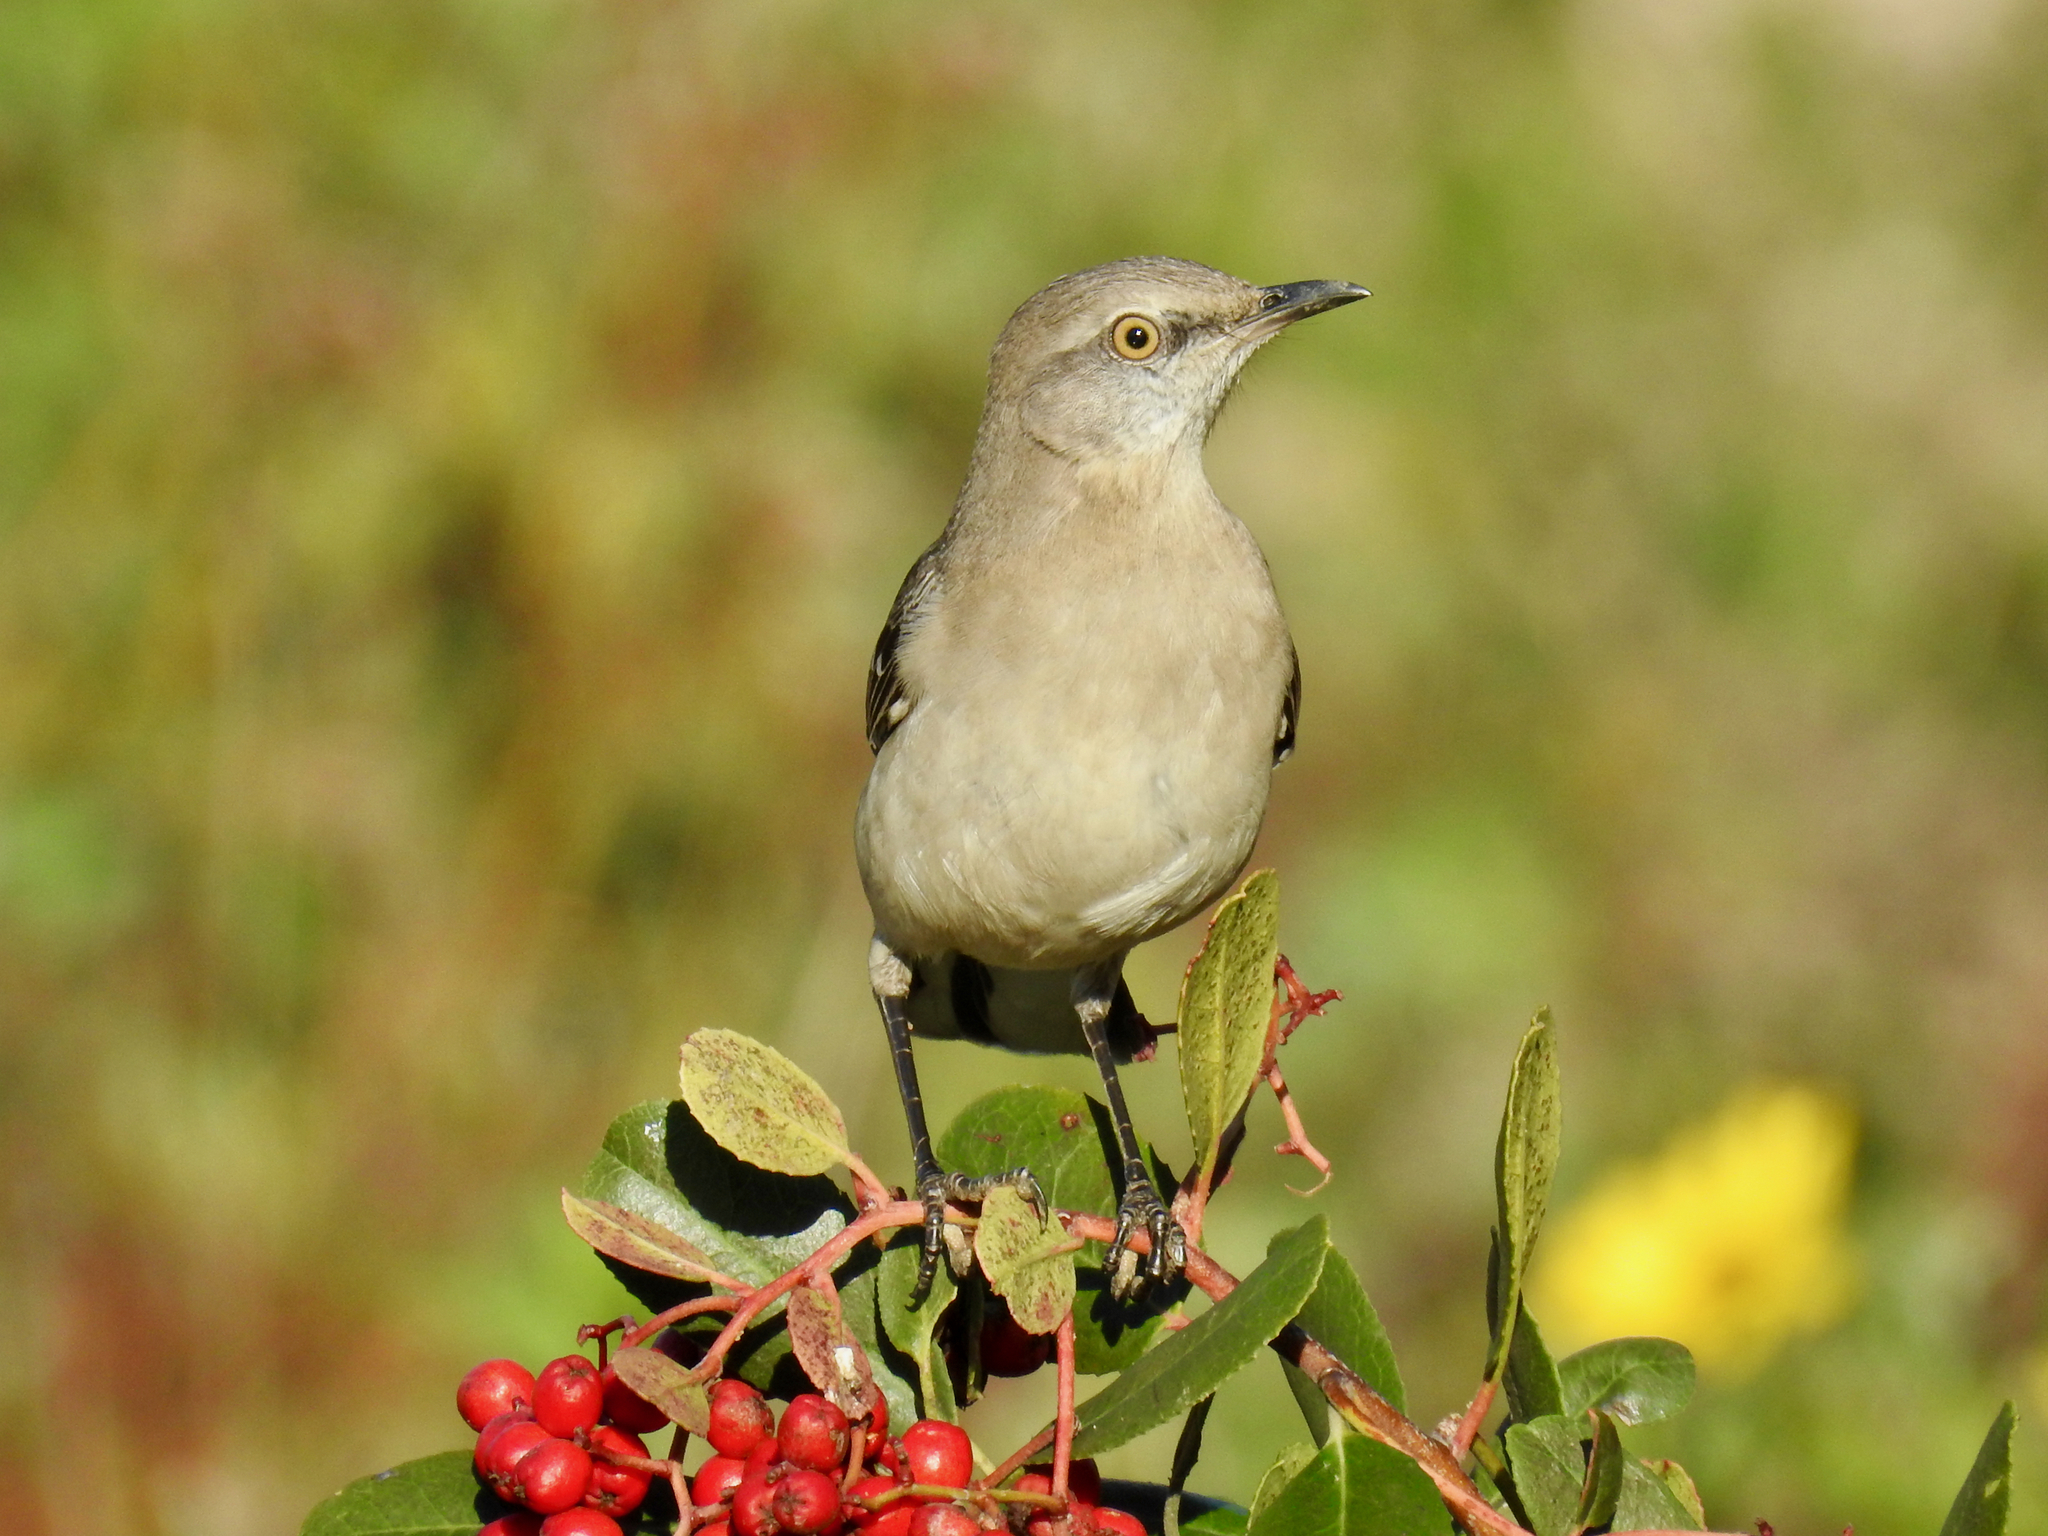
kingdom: Animalia
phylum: Chordata
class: Aves
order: Passeriformes
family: Mimidae
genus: Mimus
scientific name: Mimus polyglottos
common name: Northern mockingbird
